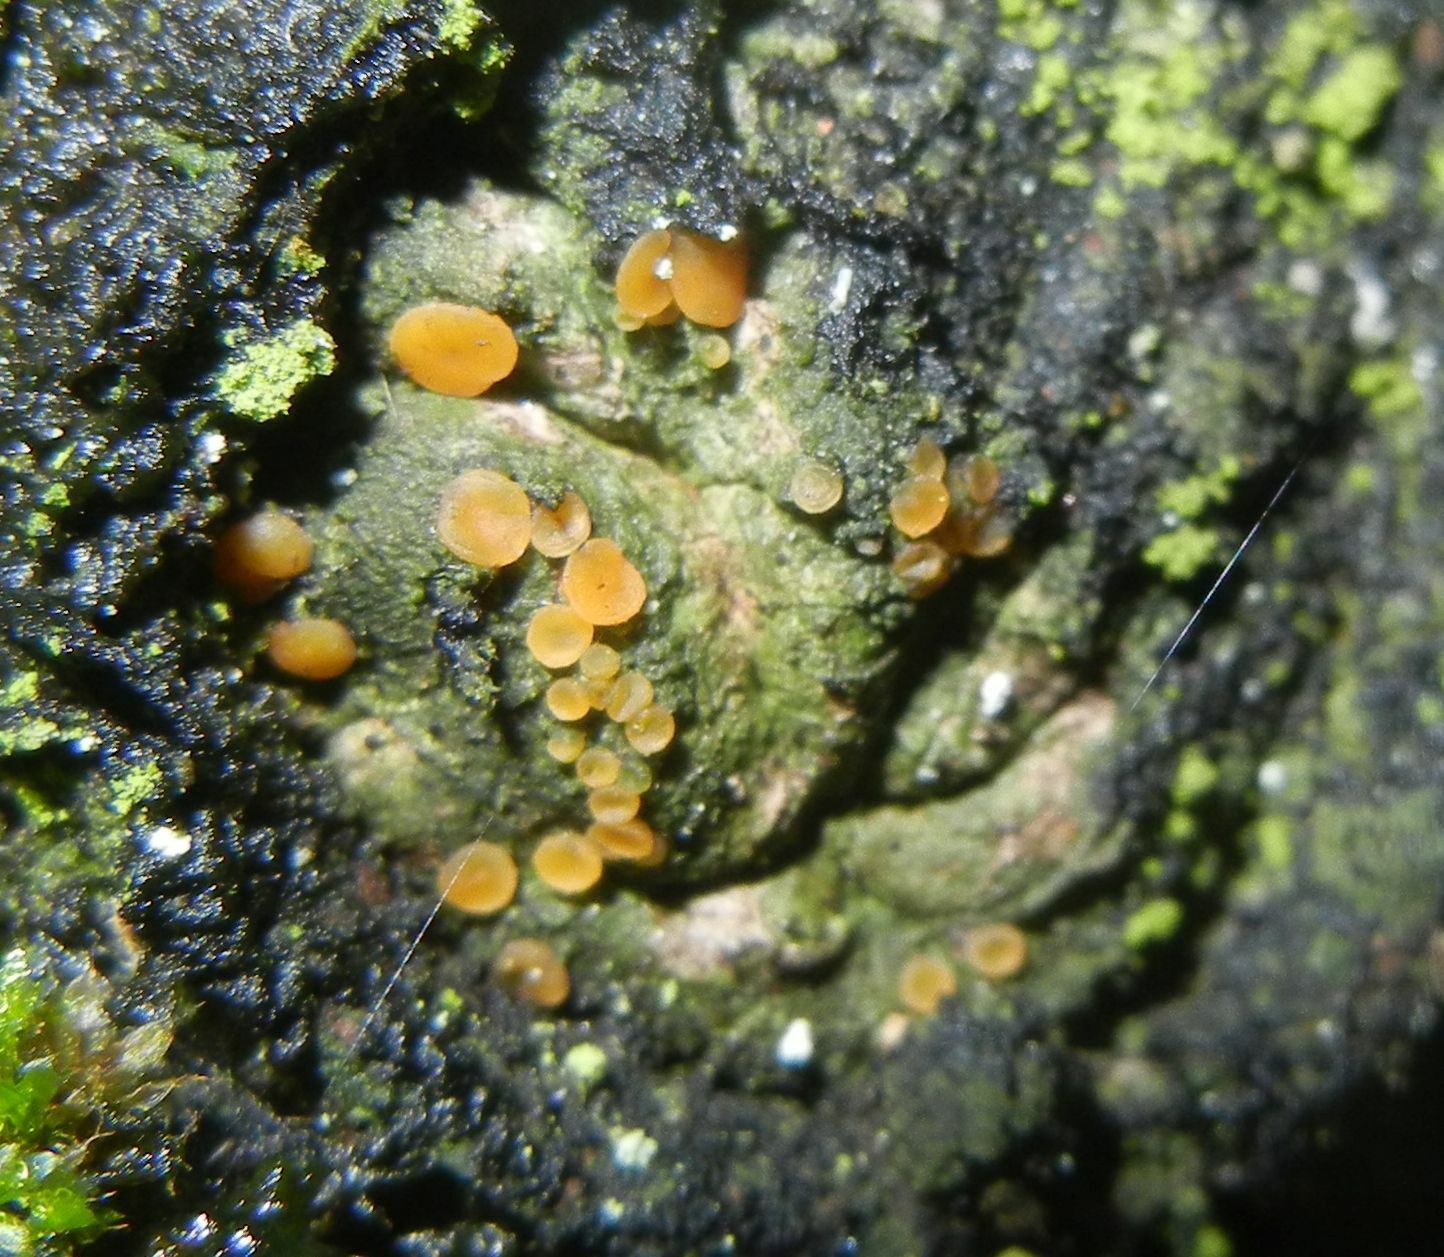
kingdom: Fungi
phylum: Ascomycota
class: Lecanoromycetes
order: Ostropales
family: Coenogoniaceae
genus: Coenogonium
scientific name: Coenogonium luteum
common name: Orange dimple lichen
